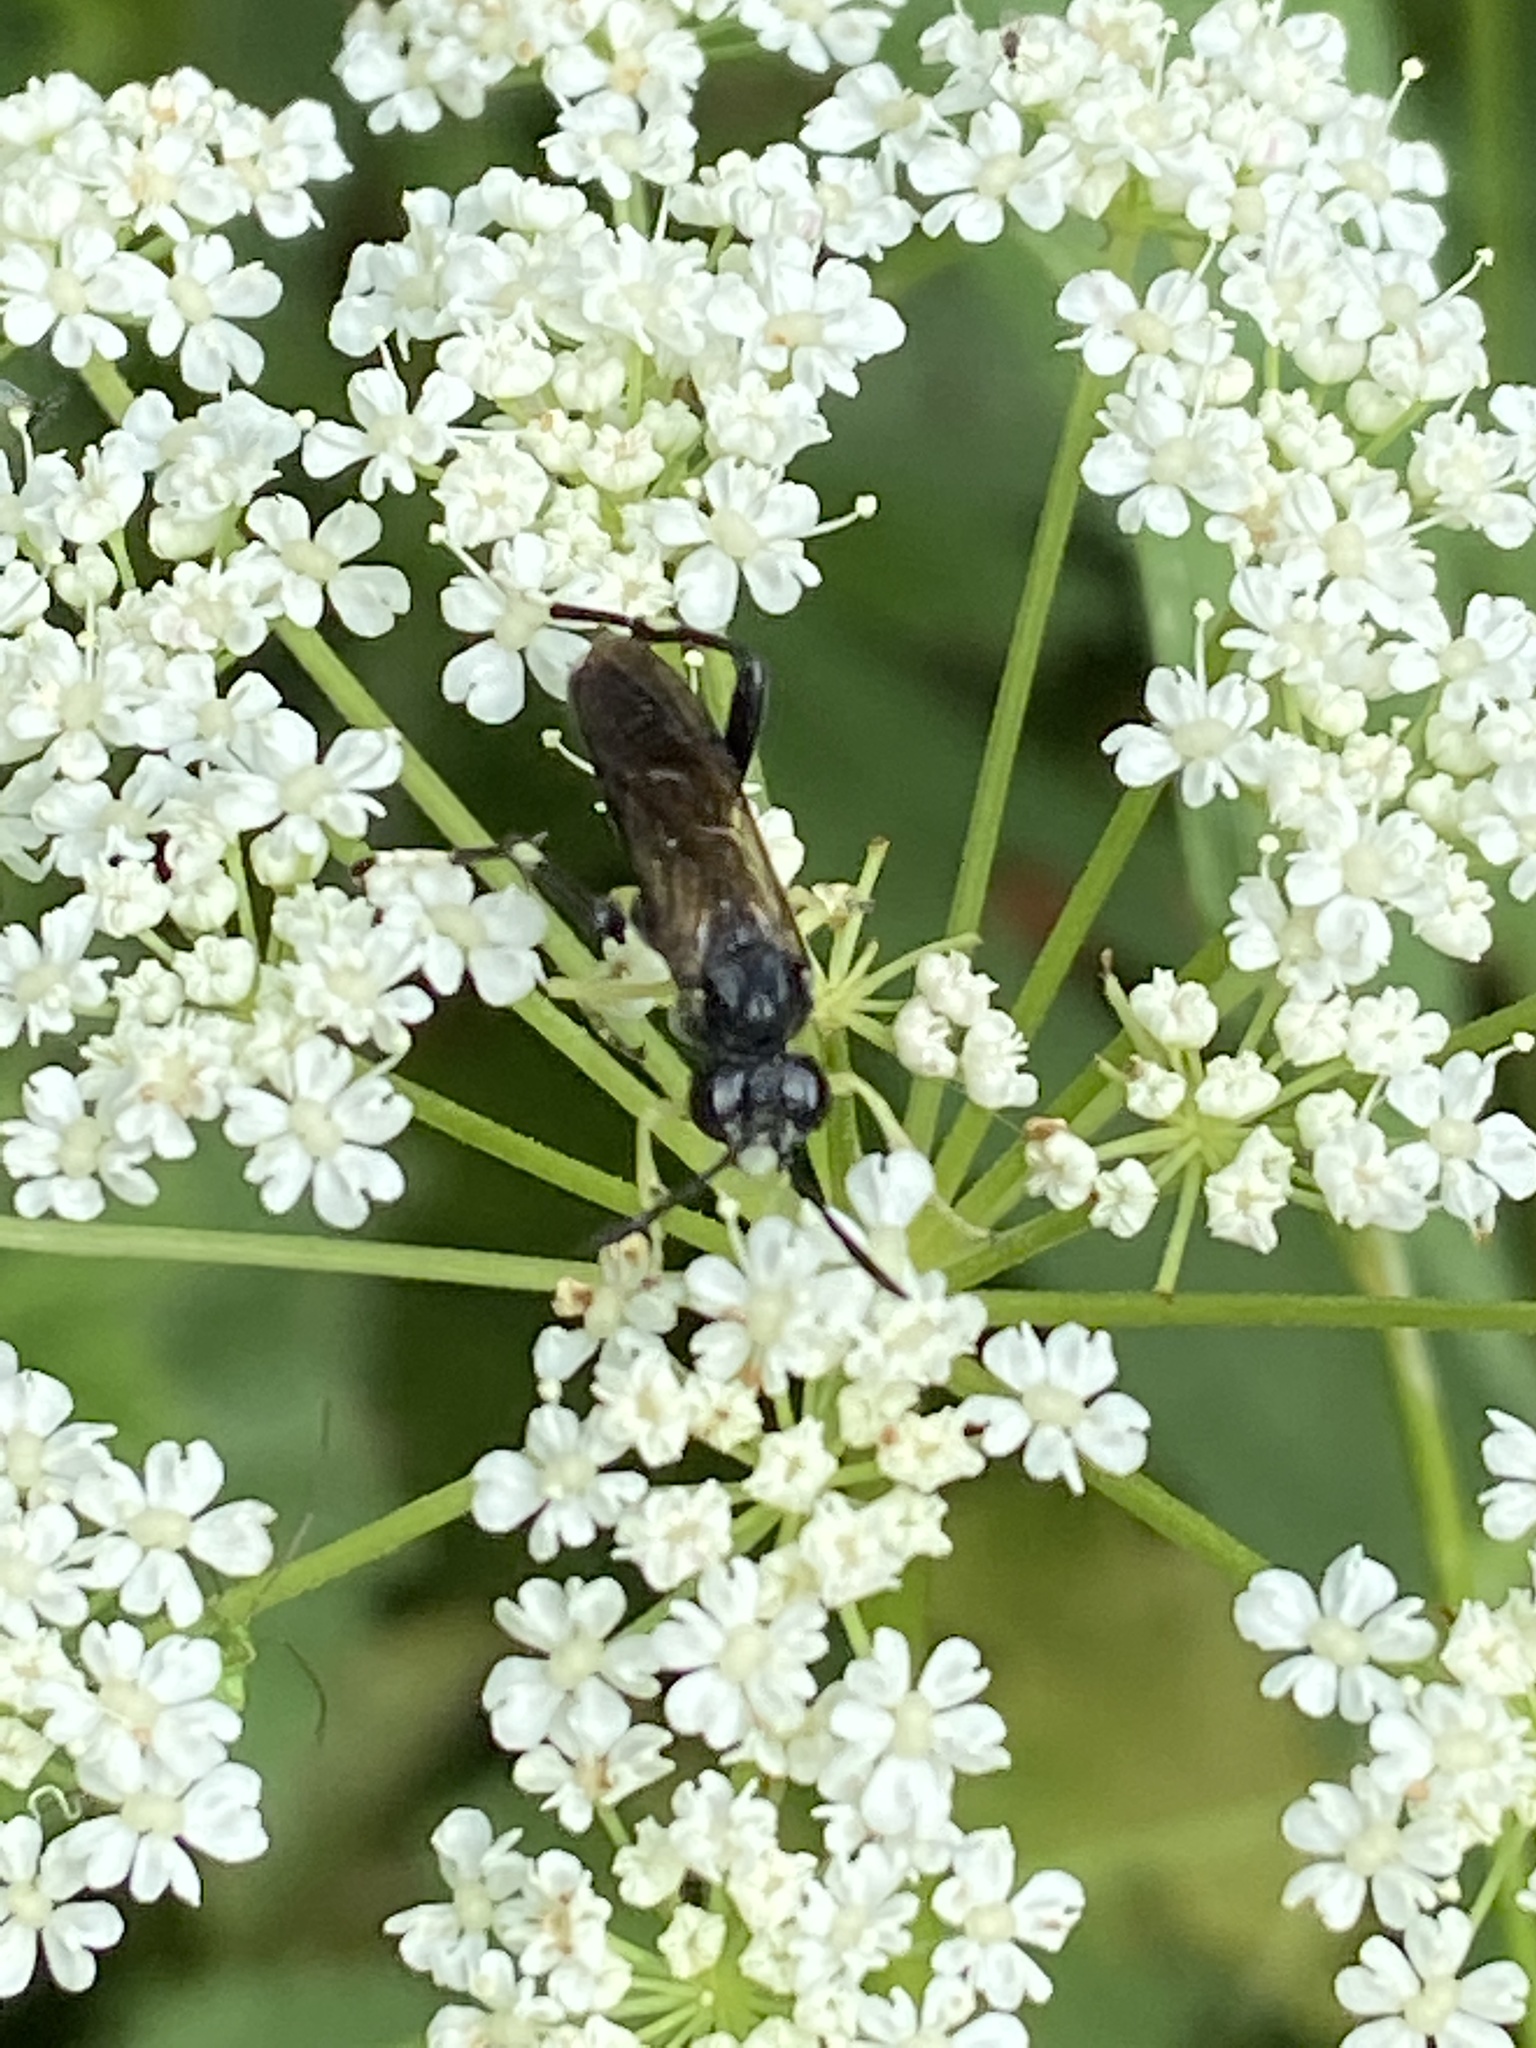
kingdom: Animalia
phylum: Arthropoda
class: Insecta
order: Hymenoptera
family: Tenthredinidae
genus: Macrophya
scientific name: Macrophya montana
